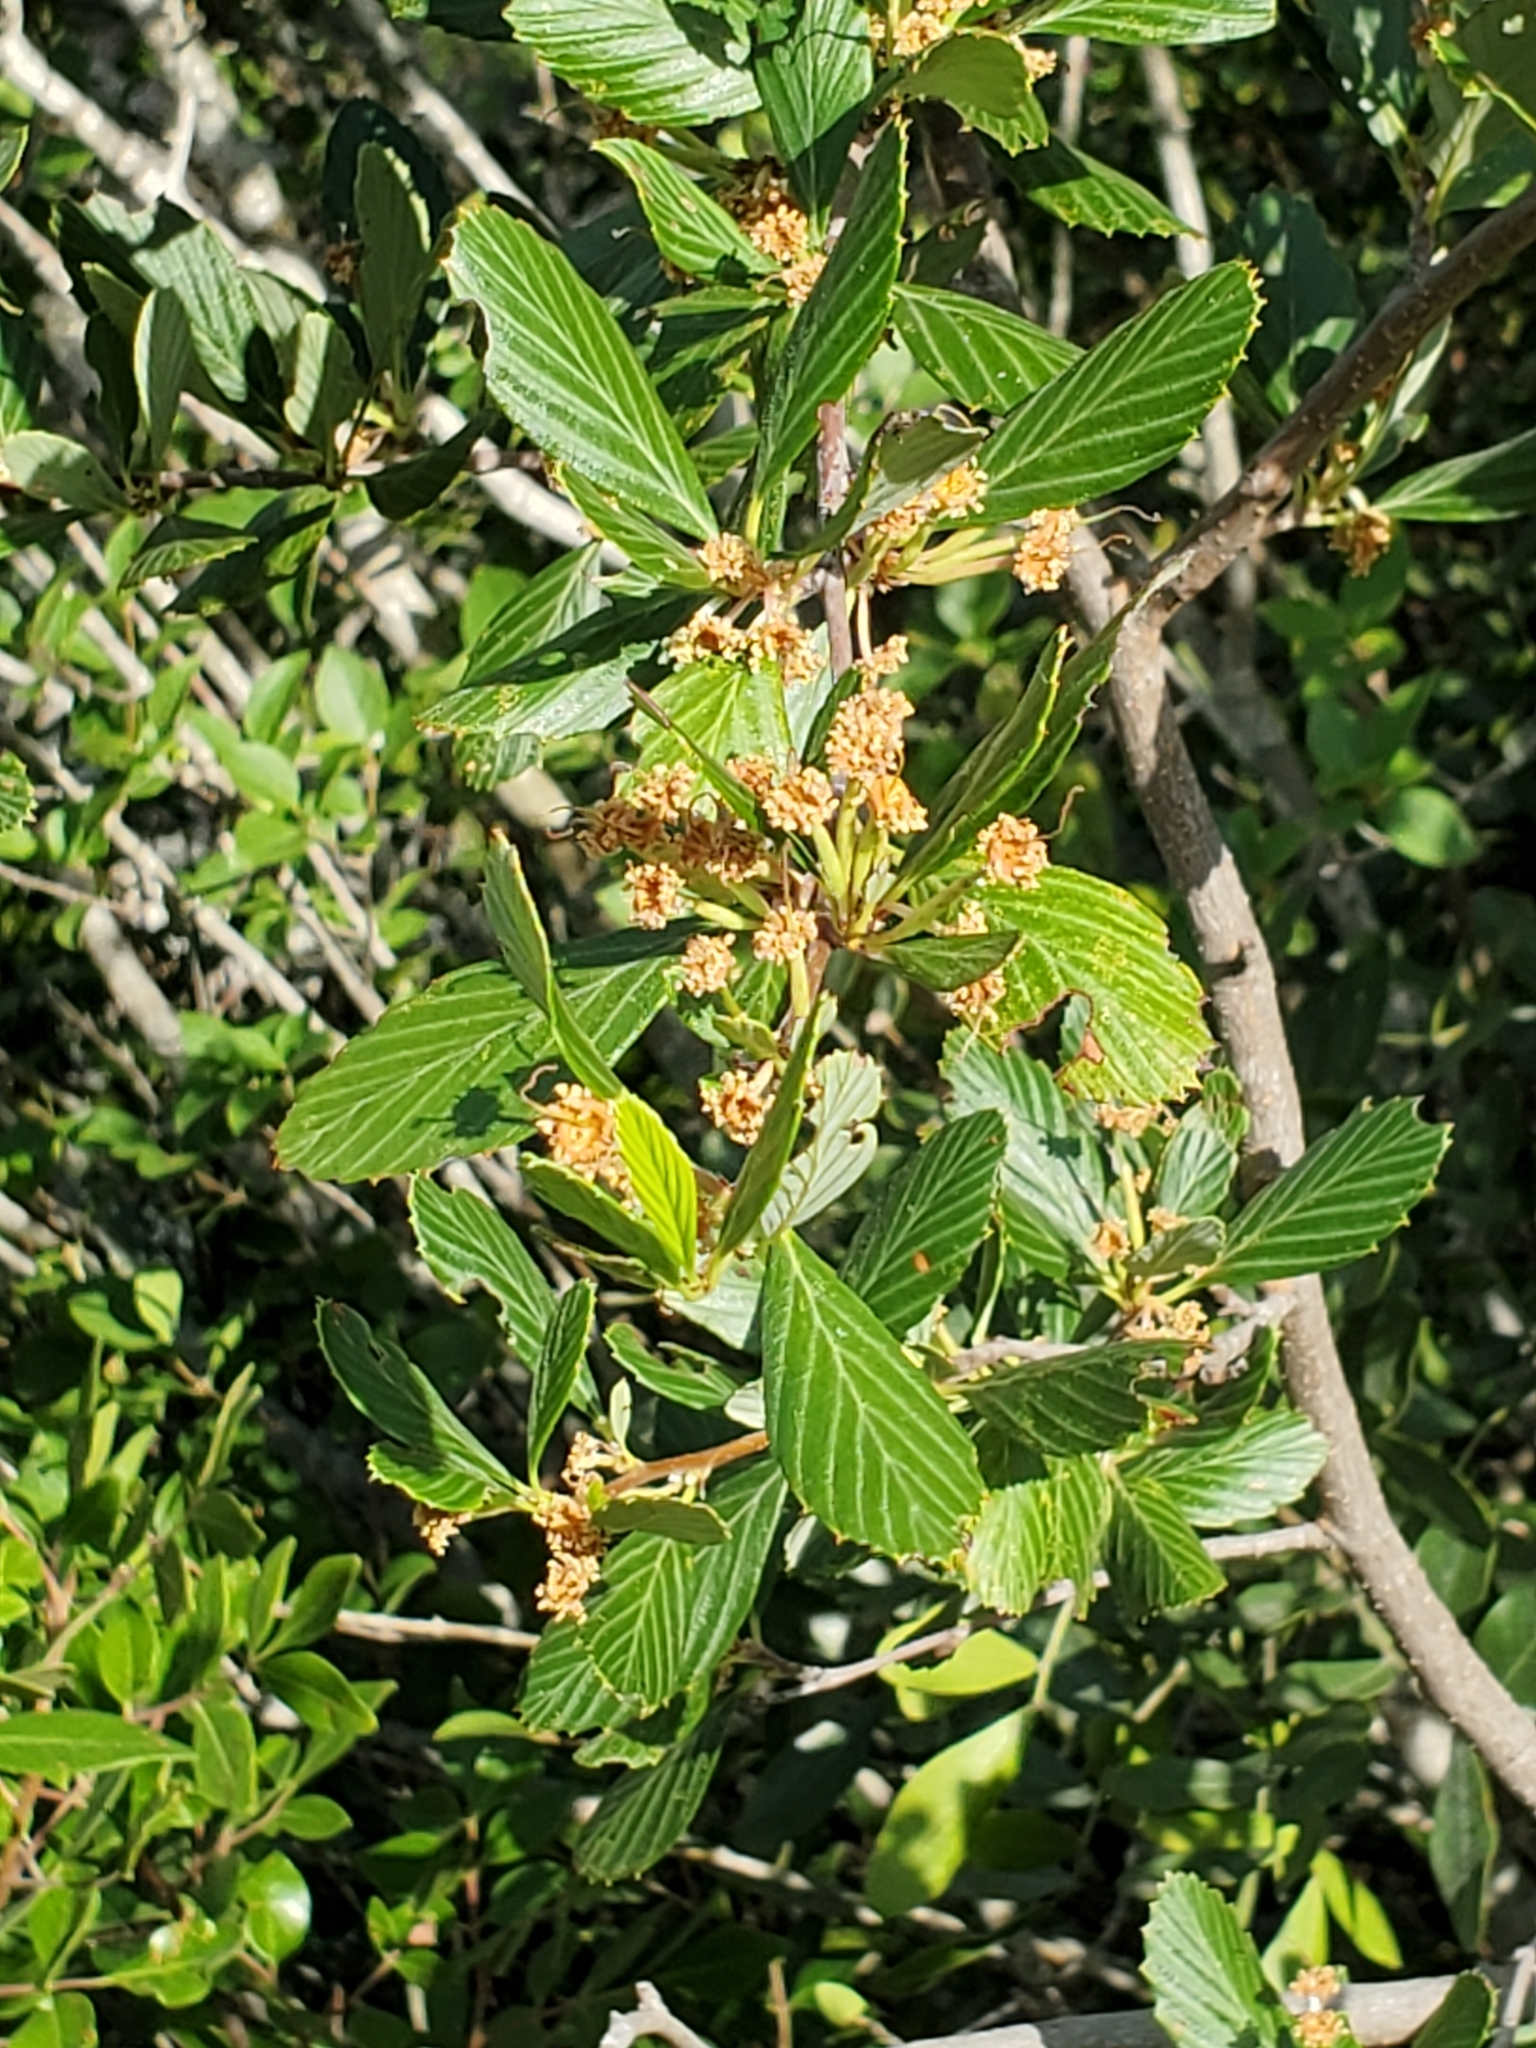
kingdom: Plantae
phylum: Tracheophyta
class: Magnoliopsida
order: Rosales
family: Rosaceae
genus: Cercocarpus
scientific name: Cercocarpus montanus
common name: Alder-leaf cercocarpus
